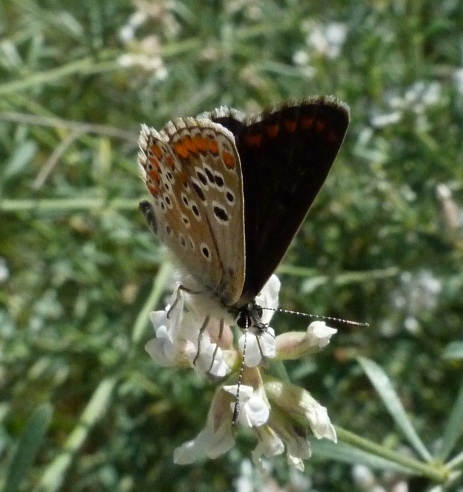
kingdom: Animalia
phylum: Arthropoda
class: Insecta
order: Lepidoptera
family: Lycaenidae
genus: Aricia
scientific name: Aricia cramera
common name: Eschscholtz´s brown  argus
